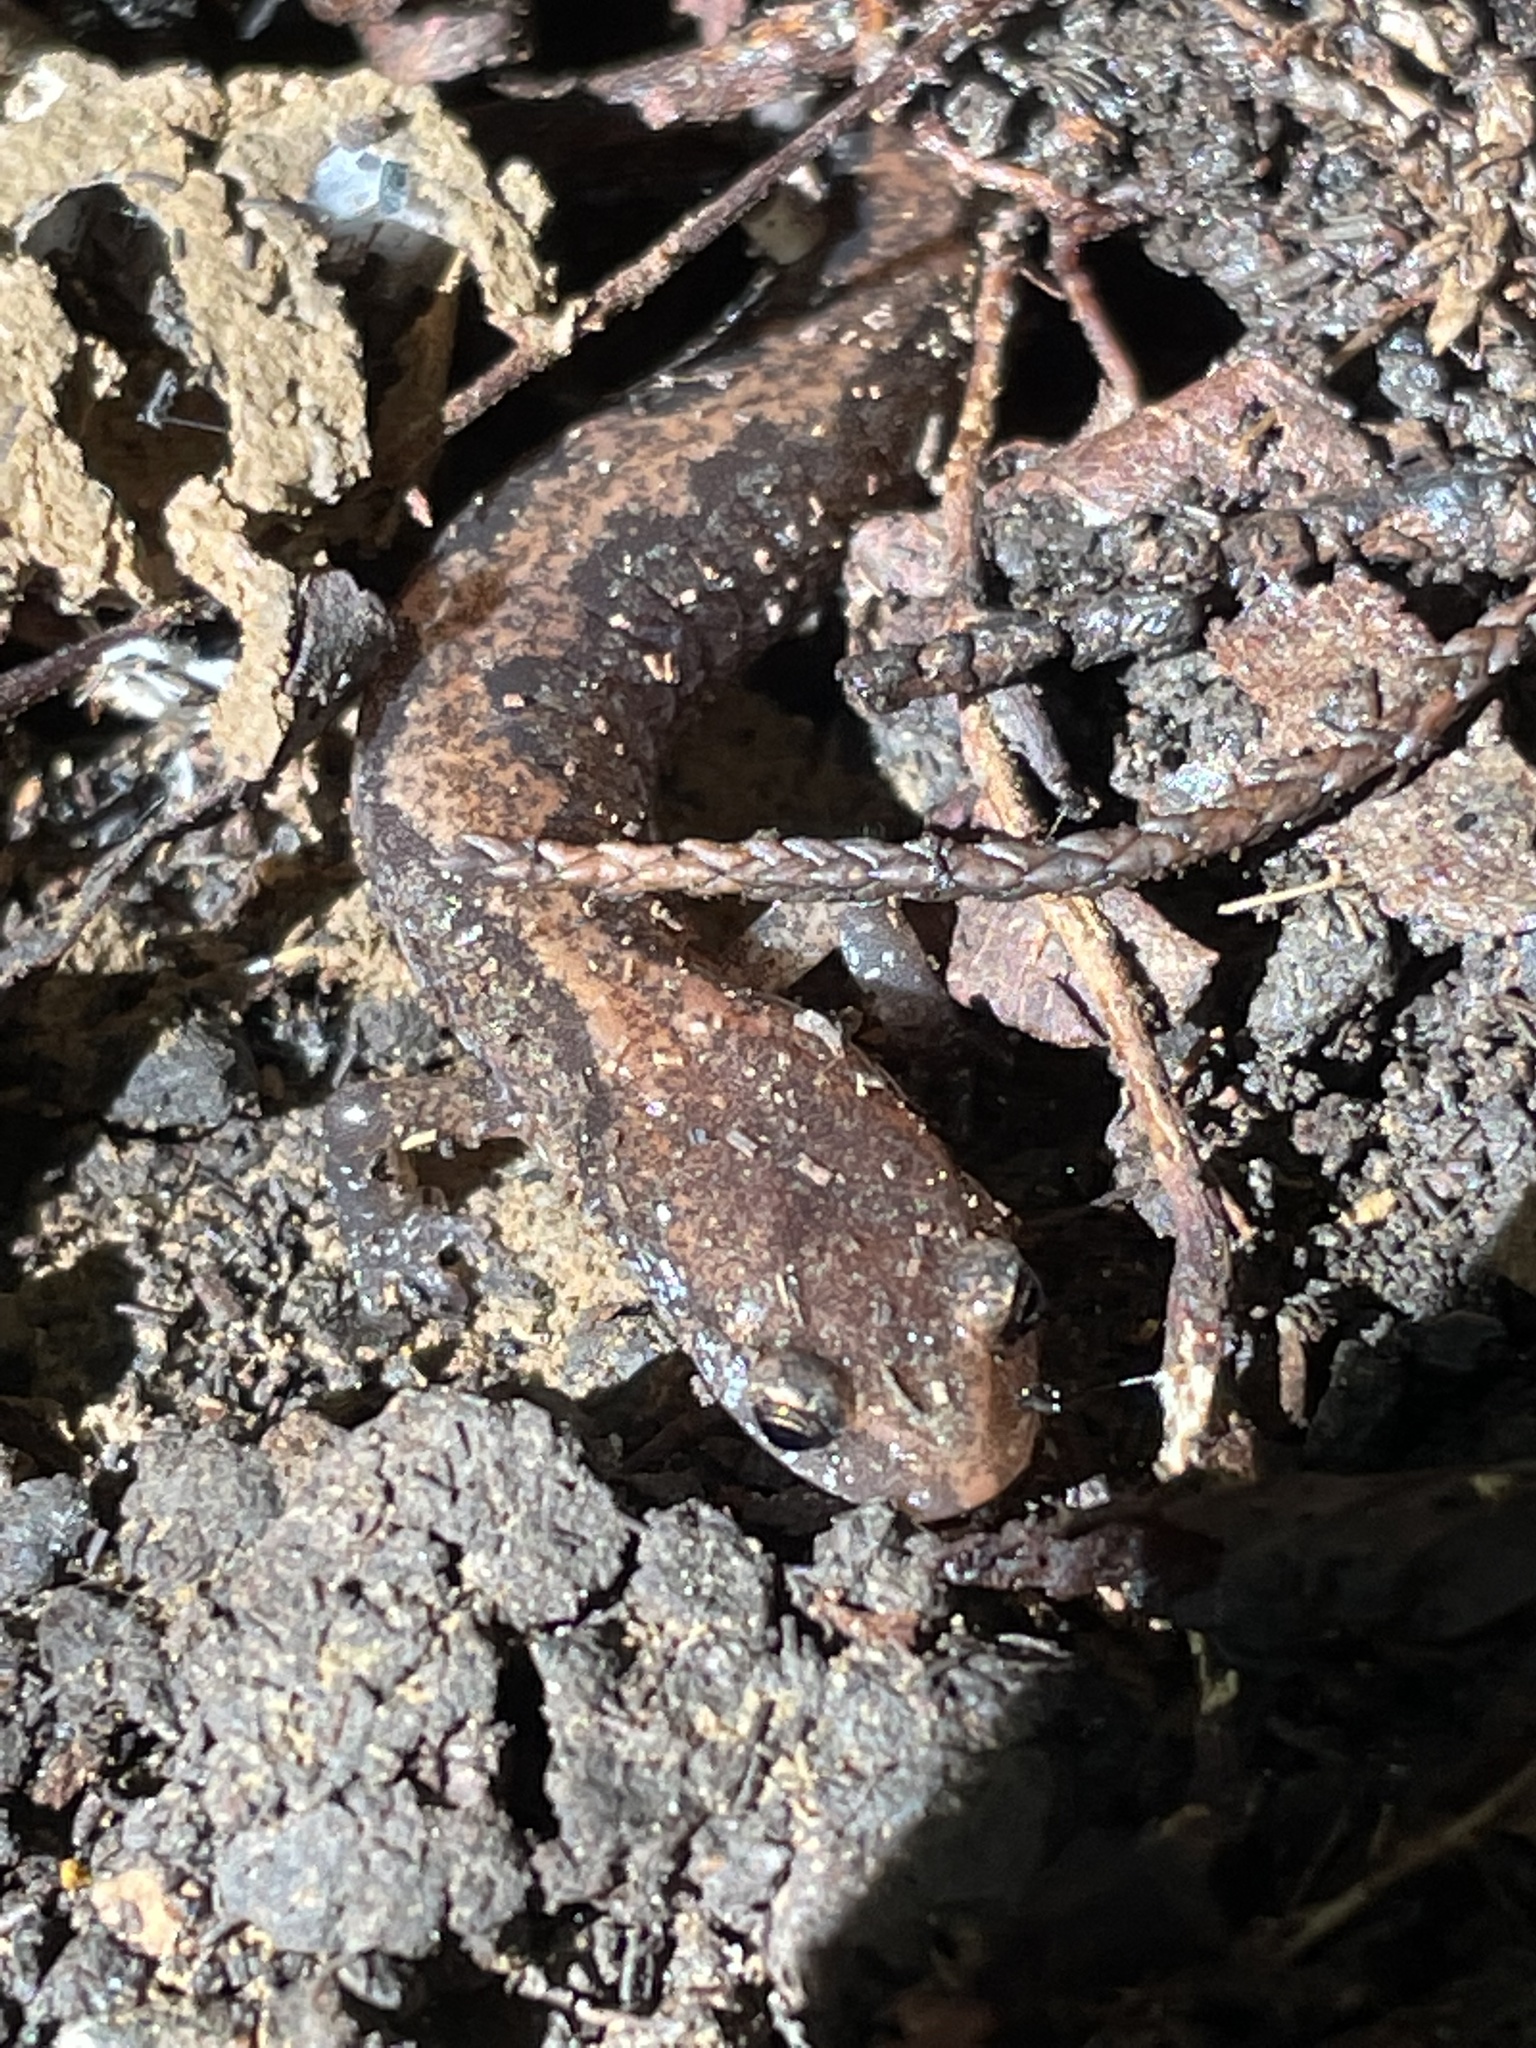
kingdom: Animalia
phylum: Chordata
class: Amphibia
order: Caudata
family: Plethodontidae
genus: Plethodon
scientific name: Plethodon dorsalis
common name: Northern zigzag salamander
